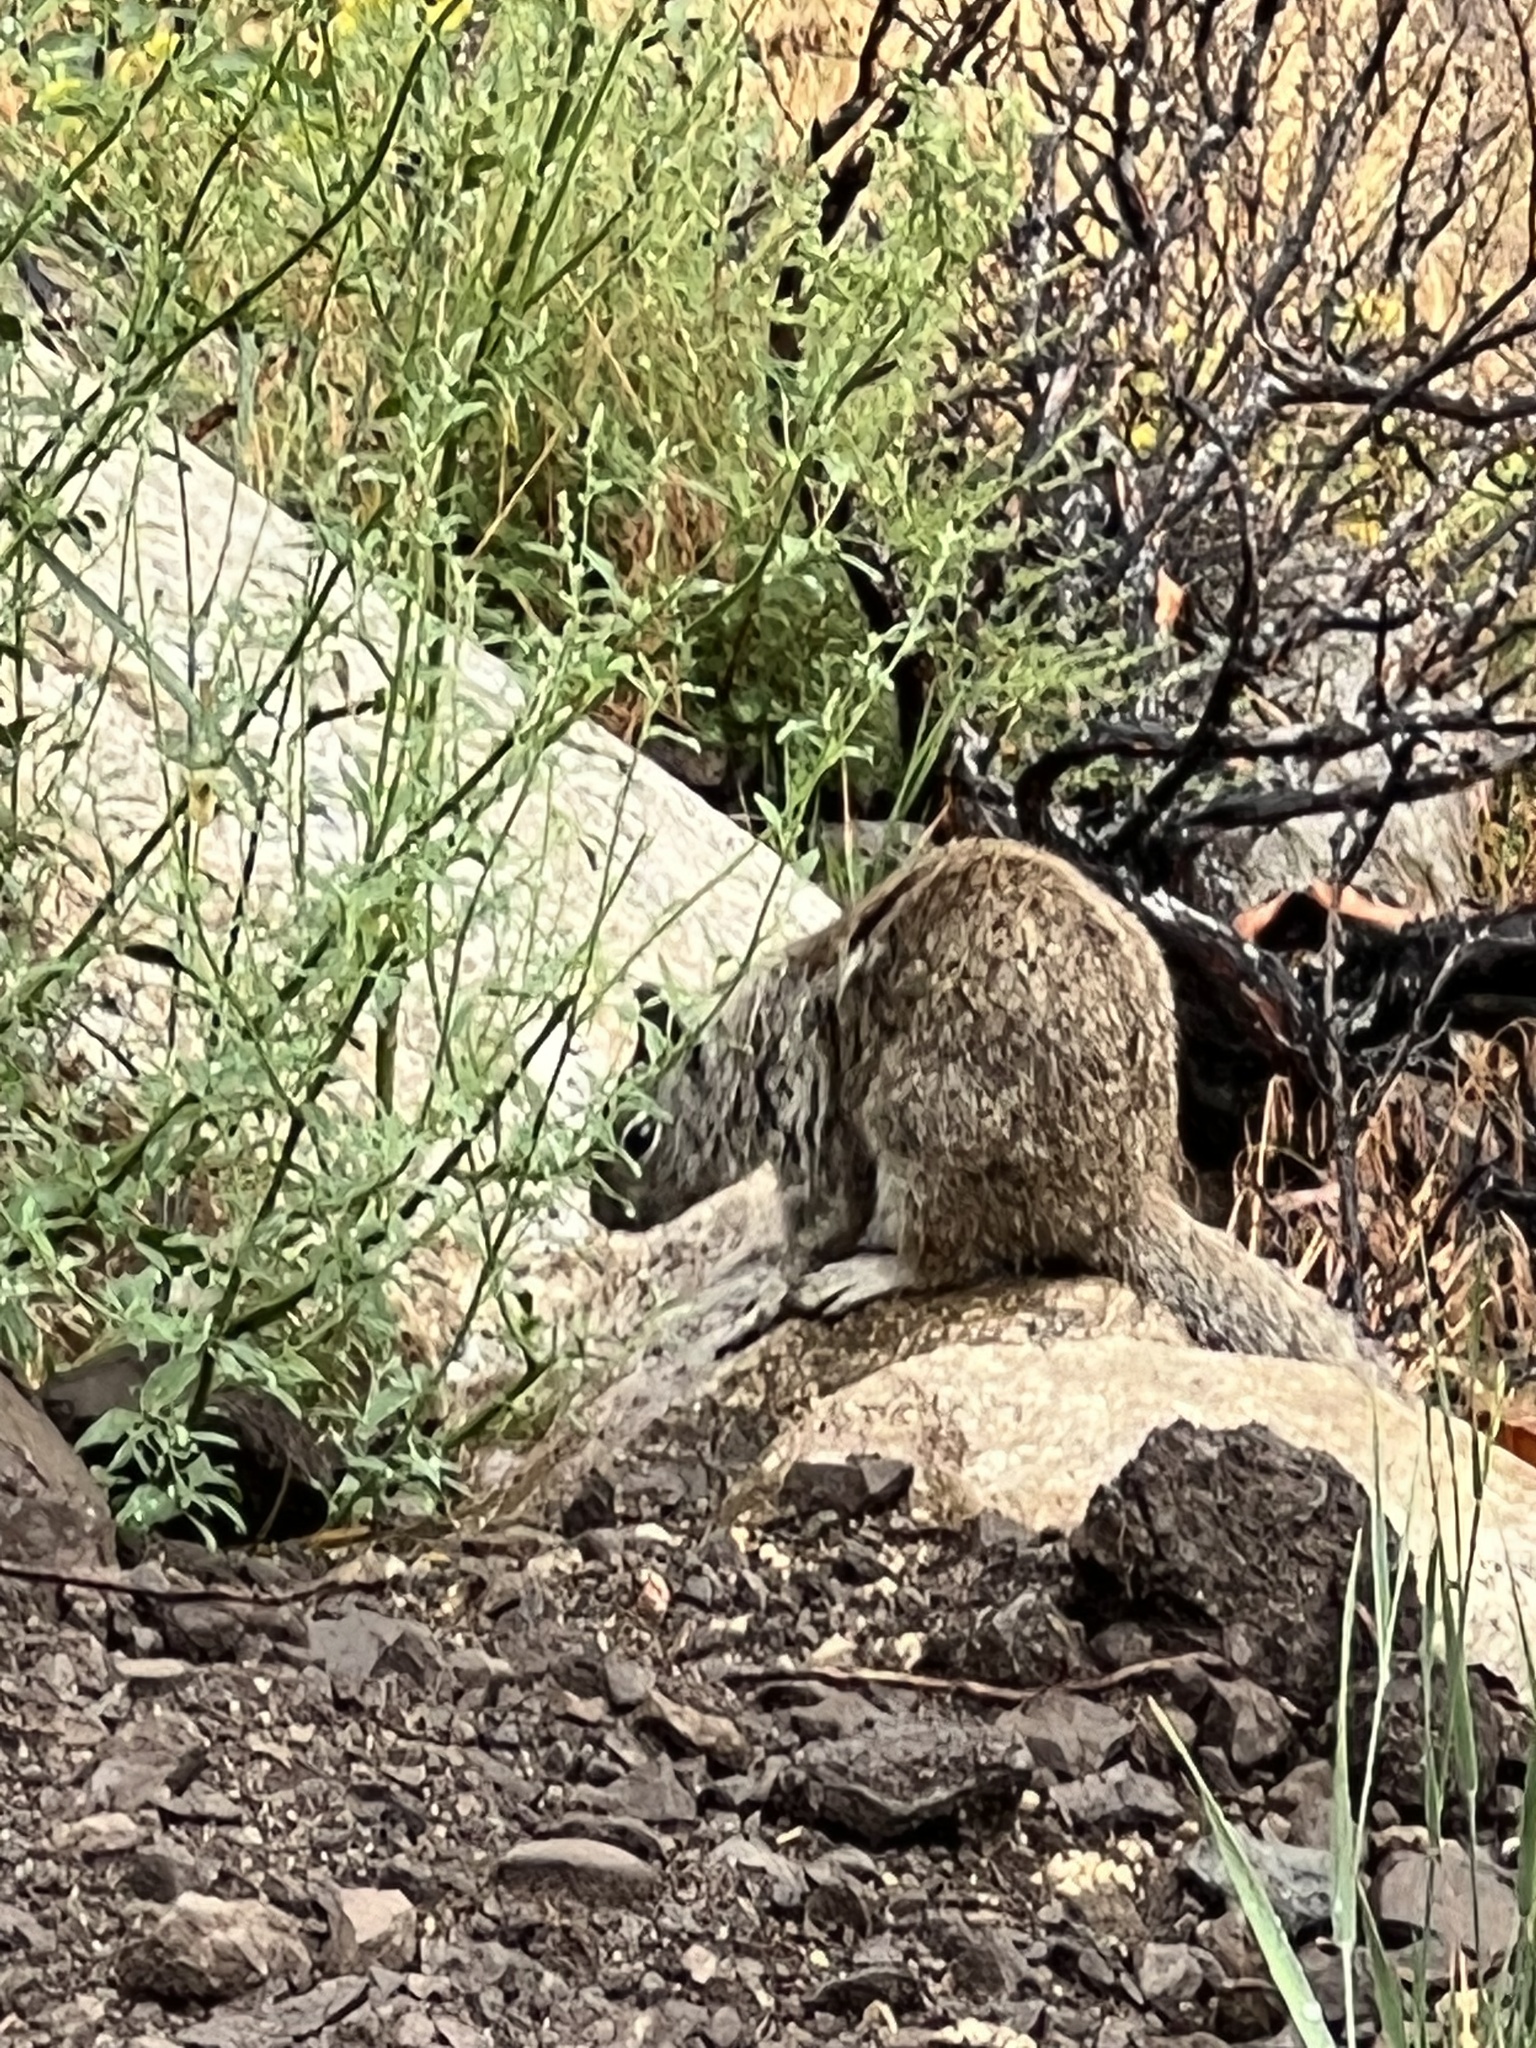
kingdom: Animalia
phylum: Chordata
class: Mammalia
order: Rodentia
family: Sciuridae
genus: Otospermophilus
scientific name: Otospermophilus beecheyi
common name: California ground squirrel
